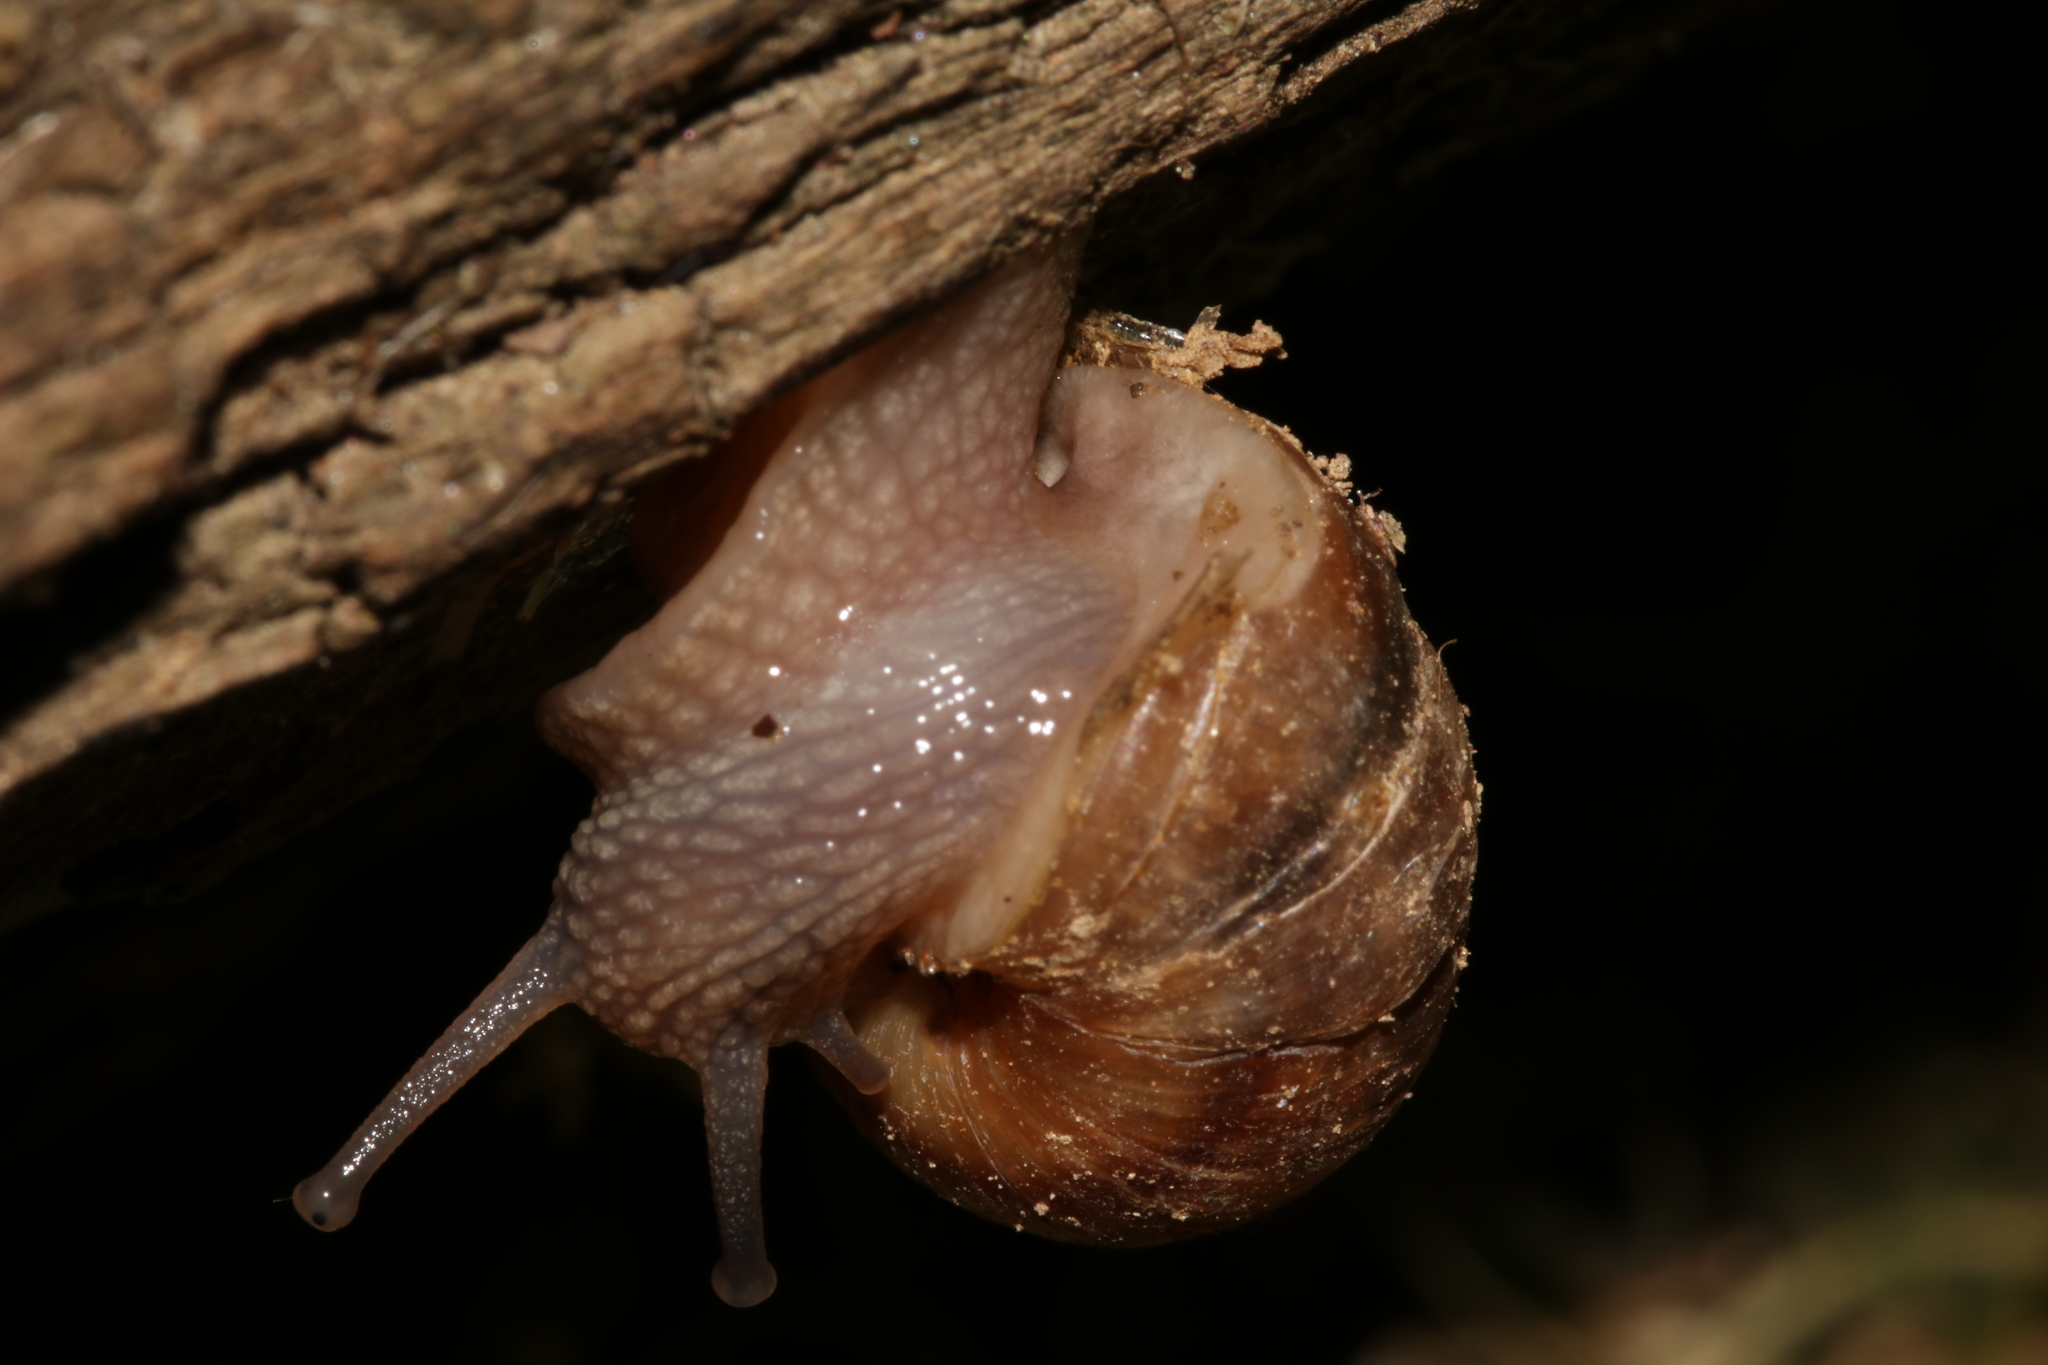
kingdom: Animalia
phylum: Mollusca
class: Gastropoda
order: Stylommatophora
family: Helicidae
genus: Helix
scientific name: Helix pomatia
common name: Roman snail
